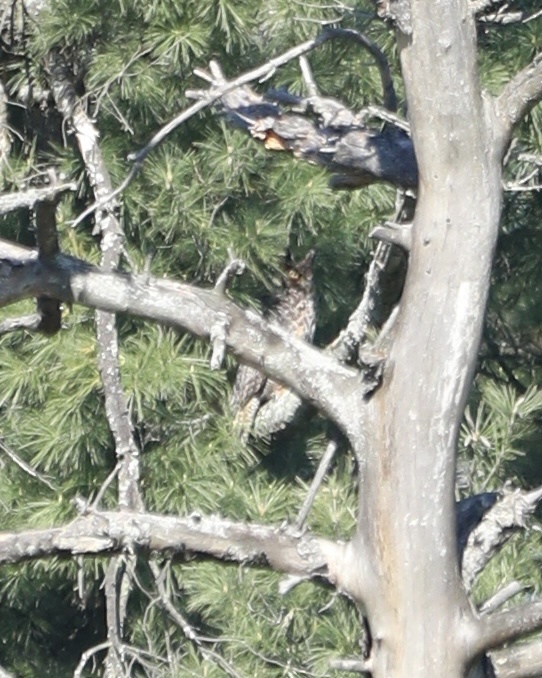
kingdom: Animalia
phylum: Chordata
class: Aves
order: Strigiformes
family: Strigidae
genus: Bubo
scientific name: Bubo virginianus
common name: Great horned owl
